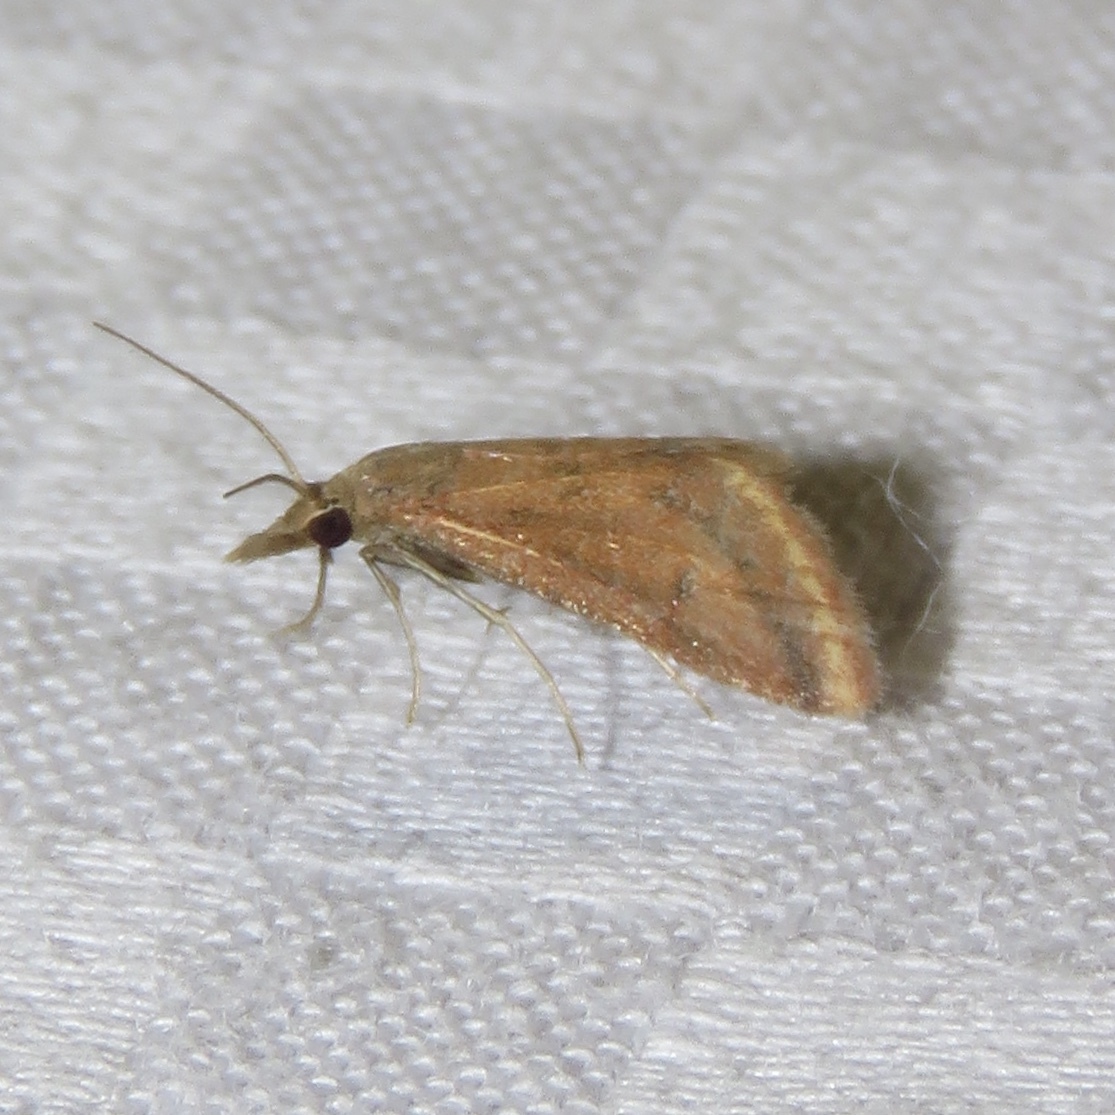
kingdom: Animalia
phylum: Arthropoda
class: Insecta
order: Lepidoptera
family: Crambidae
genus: Microtheoris
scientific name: Microtheoris ophionalis
